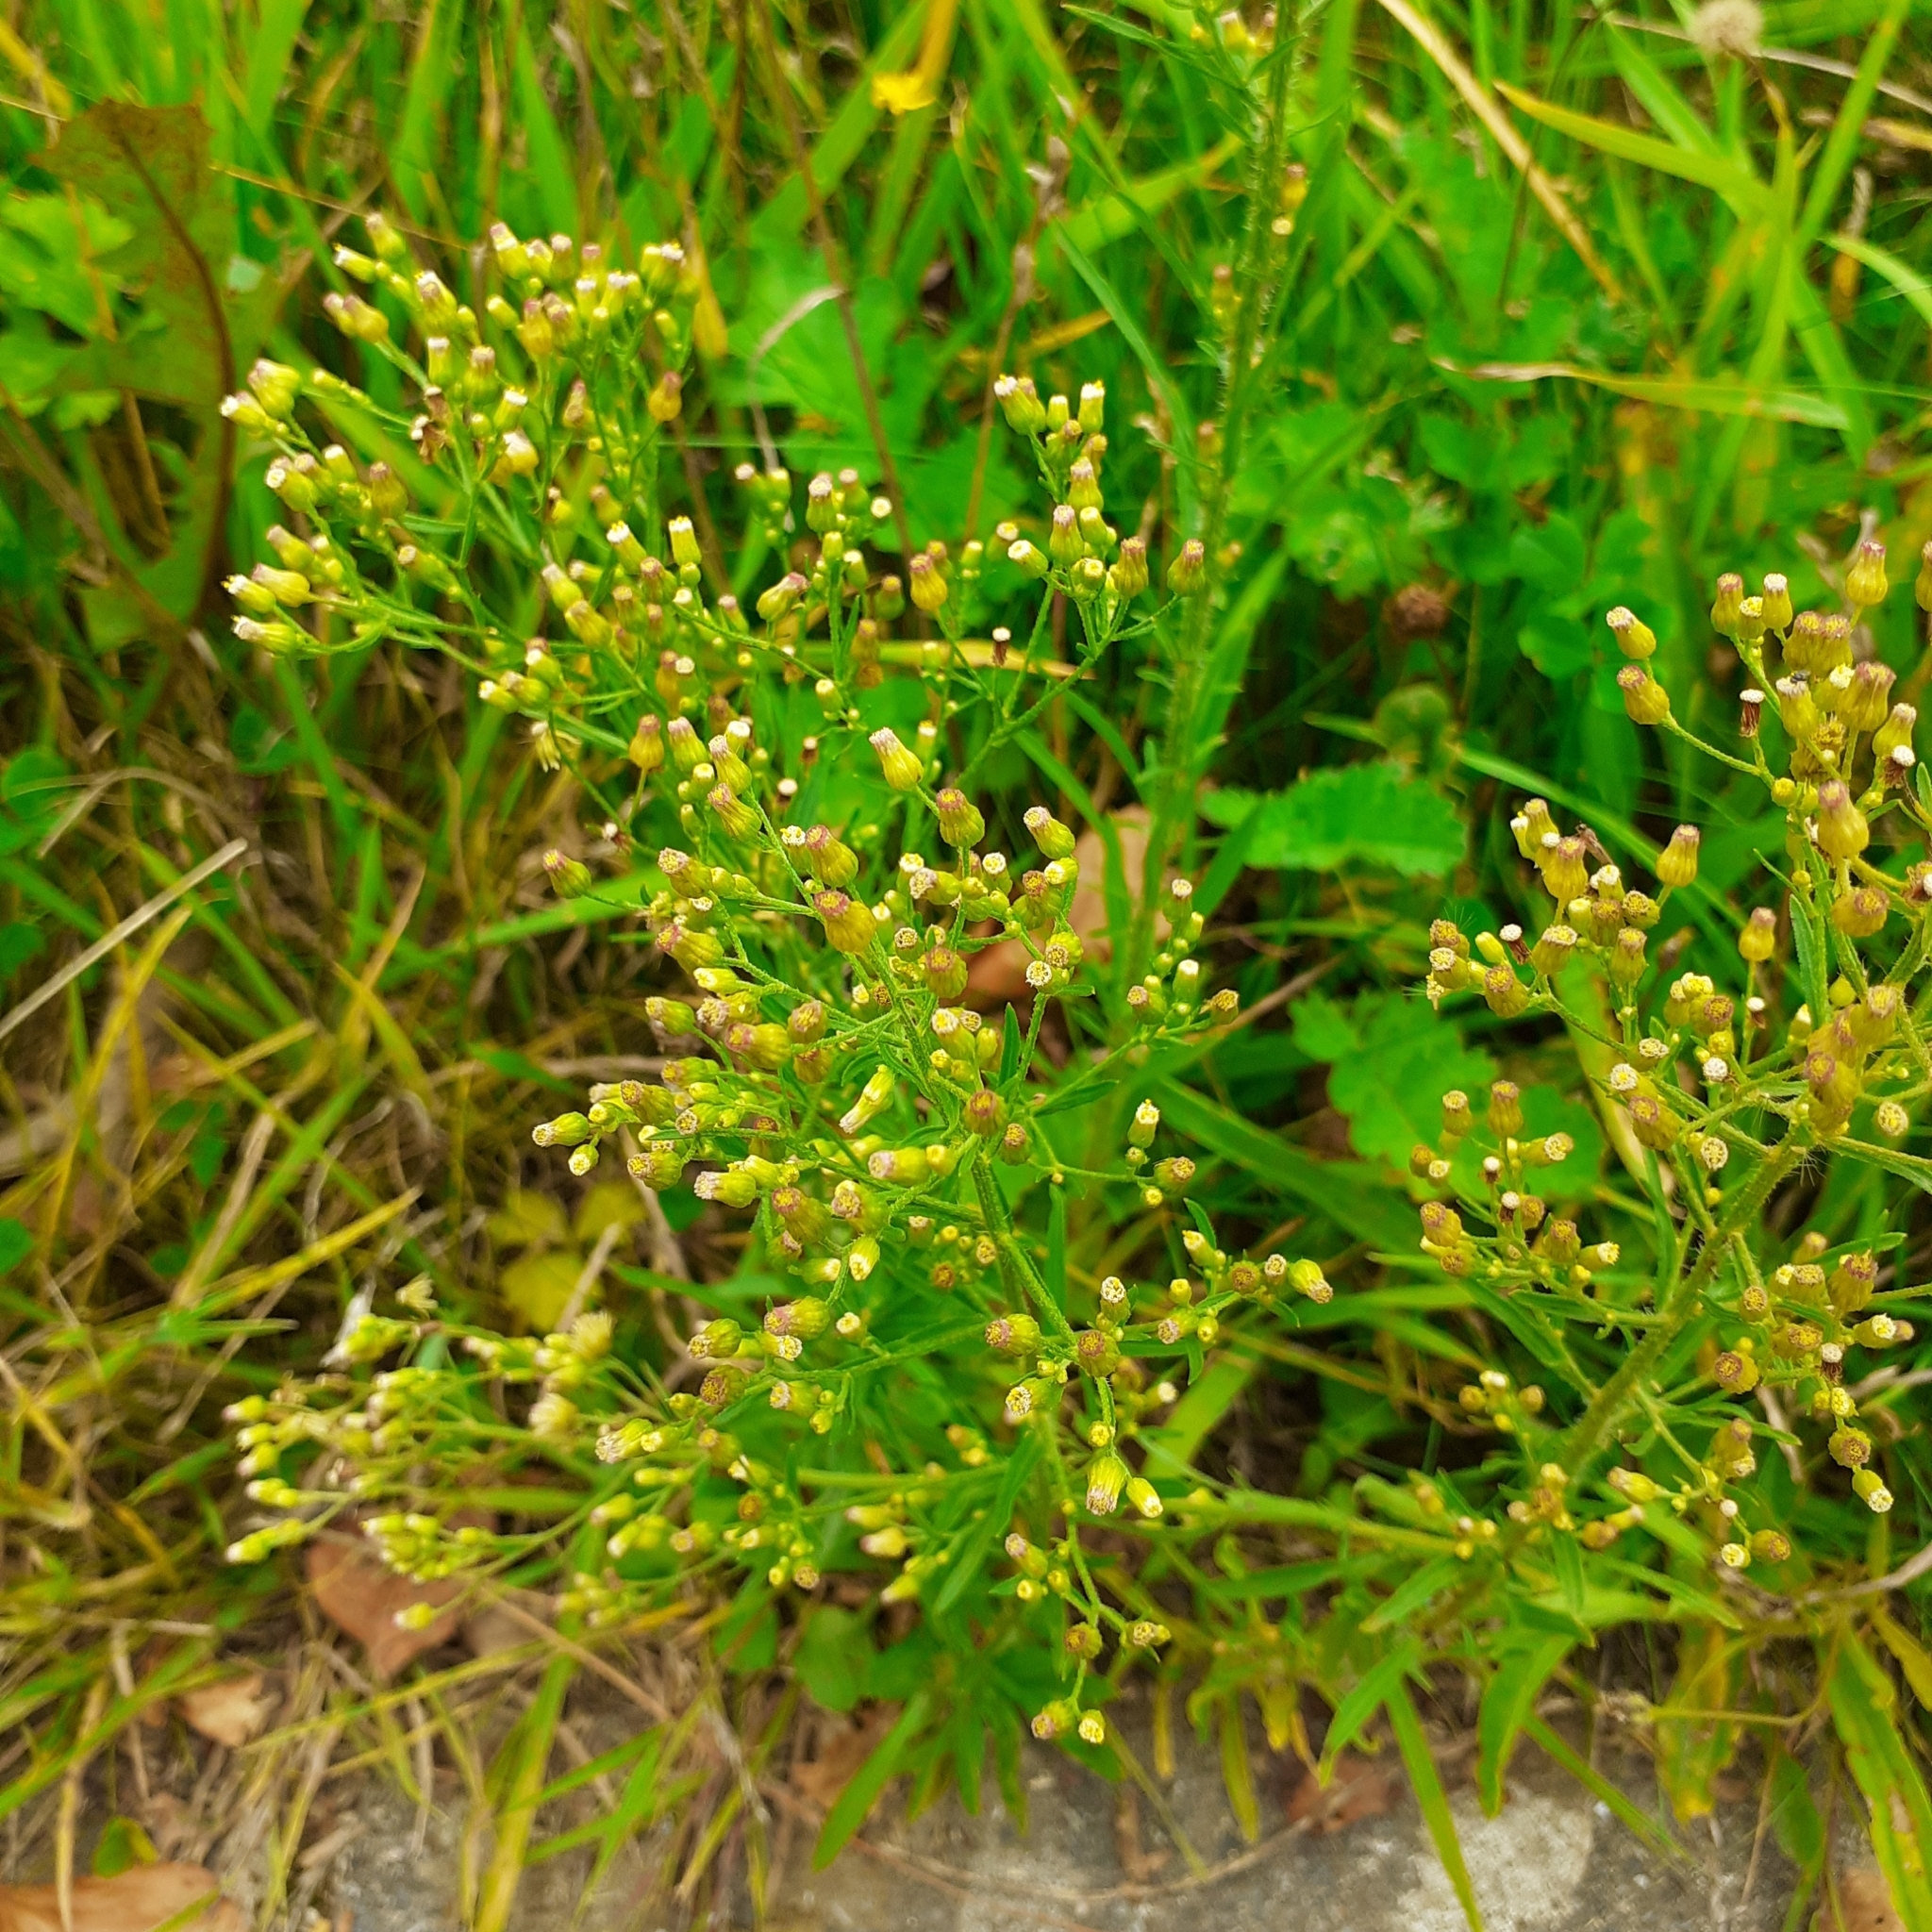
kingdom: Plantae
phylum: Tracheophyta
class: Magnoliopsida
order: Asterales
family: Asteraceae
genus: Erigeron
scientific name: Erigeron canadensis
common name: Canadian fleabane
